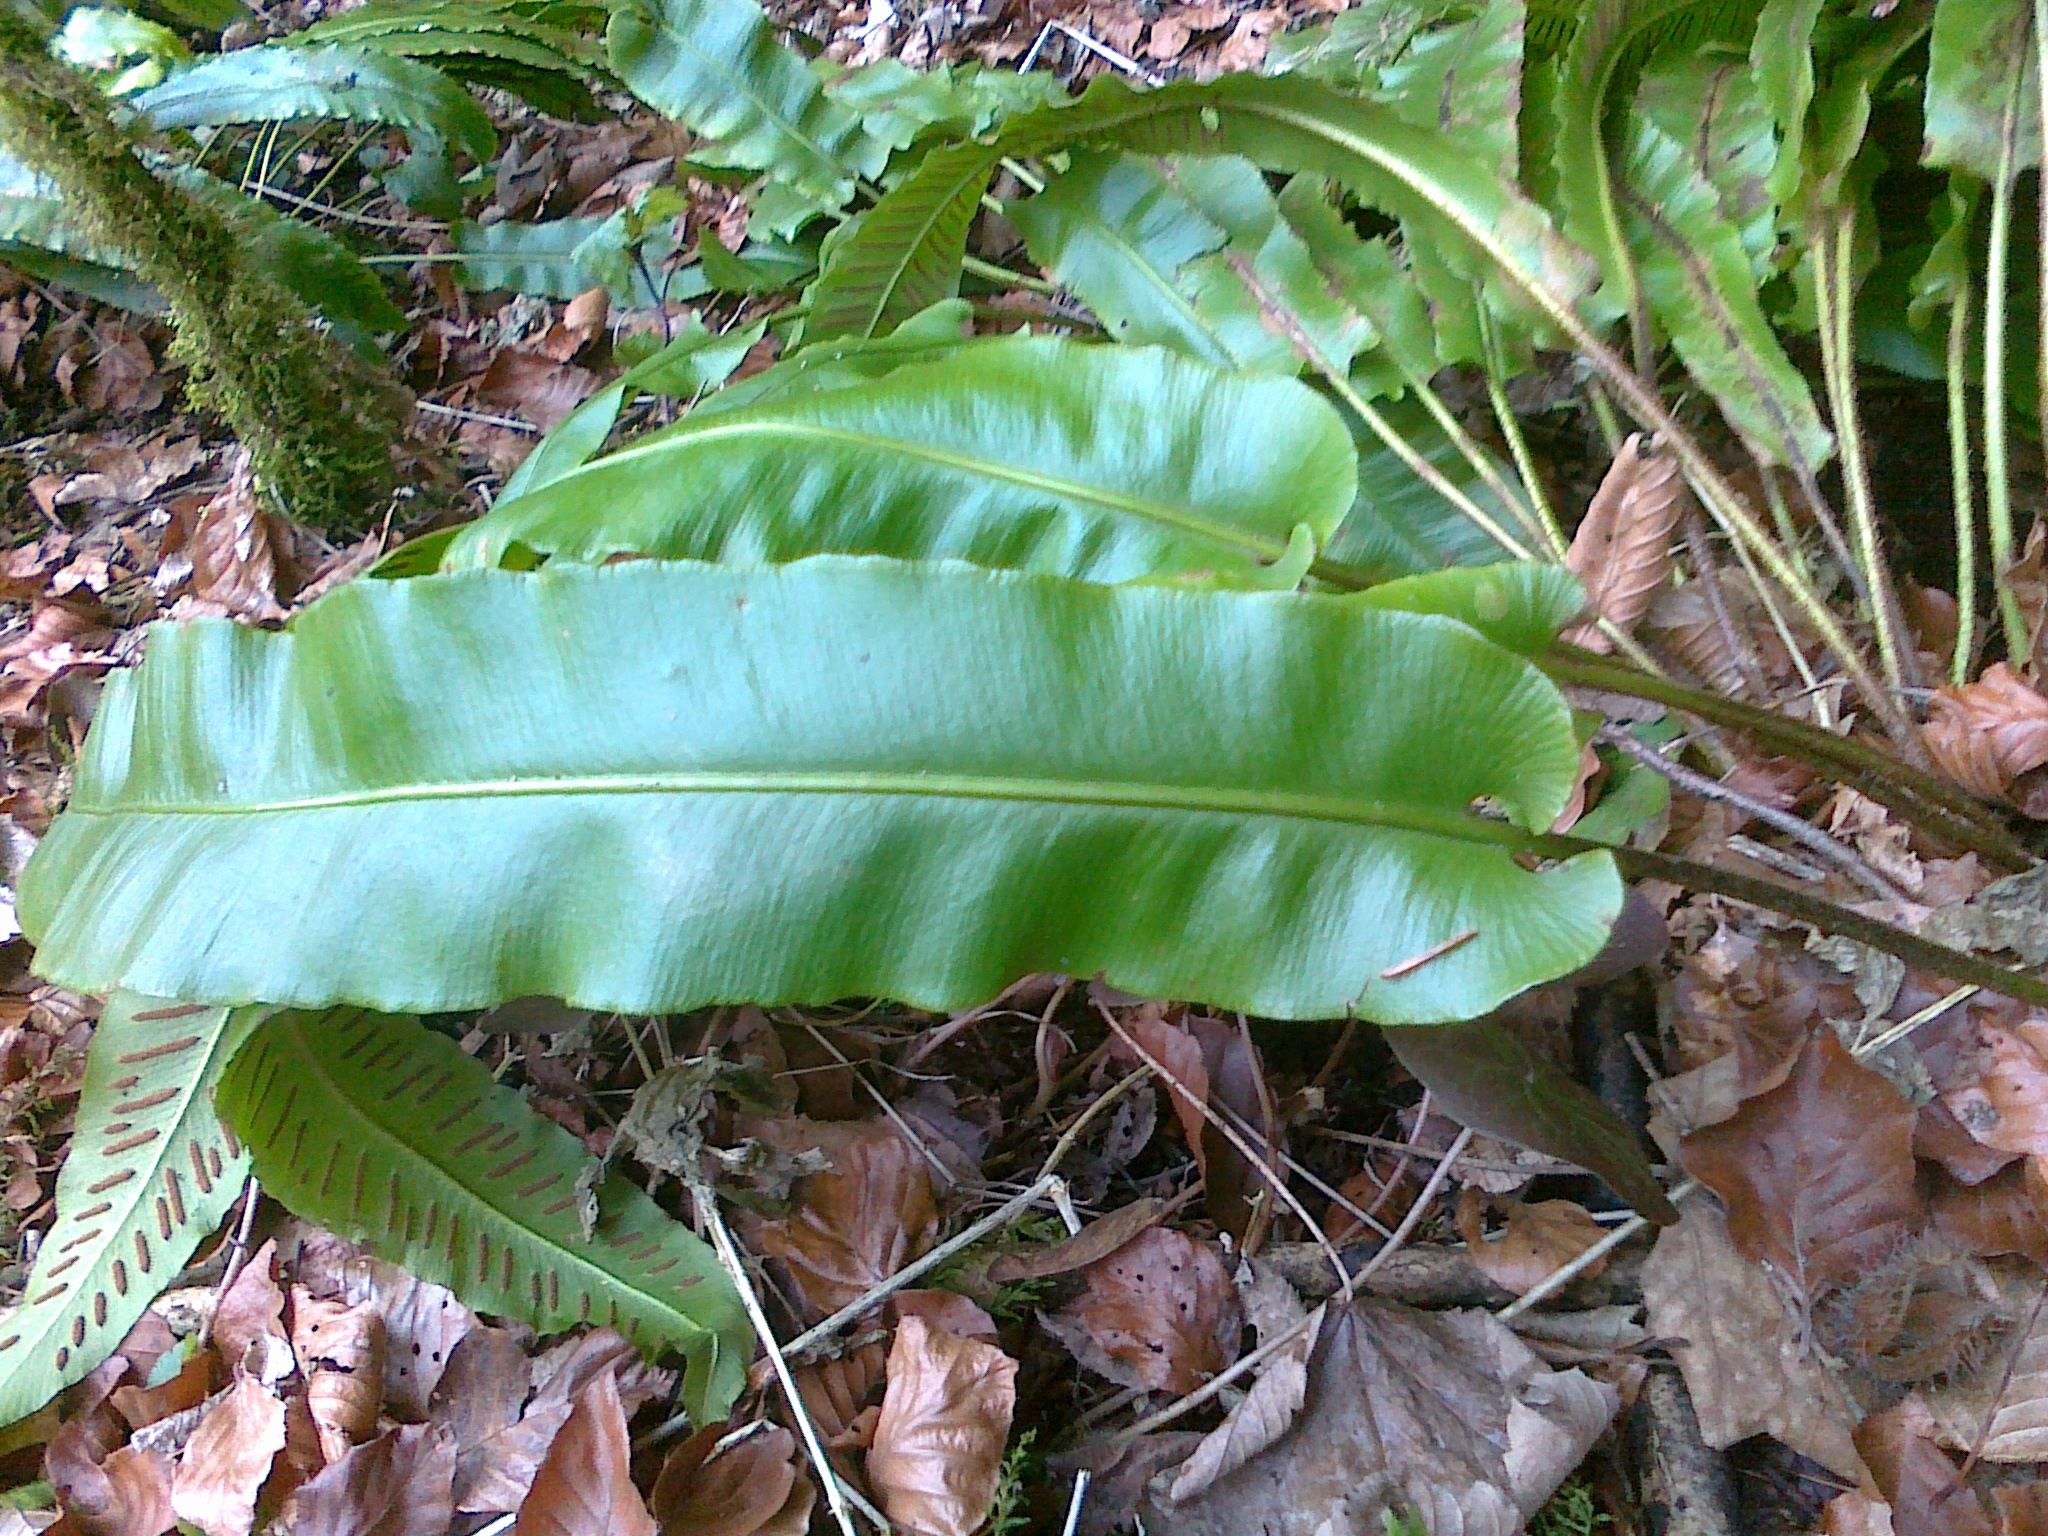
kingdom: Plantae
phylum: Tracheophyta
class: Polypodiopsida
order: Polypodiales
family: Aspleniaceae
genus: Asplenium
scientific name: Asplenium scolopendrium
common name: Hart's-tongue fern
